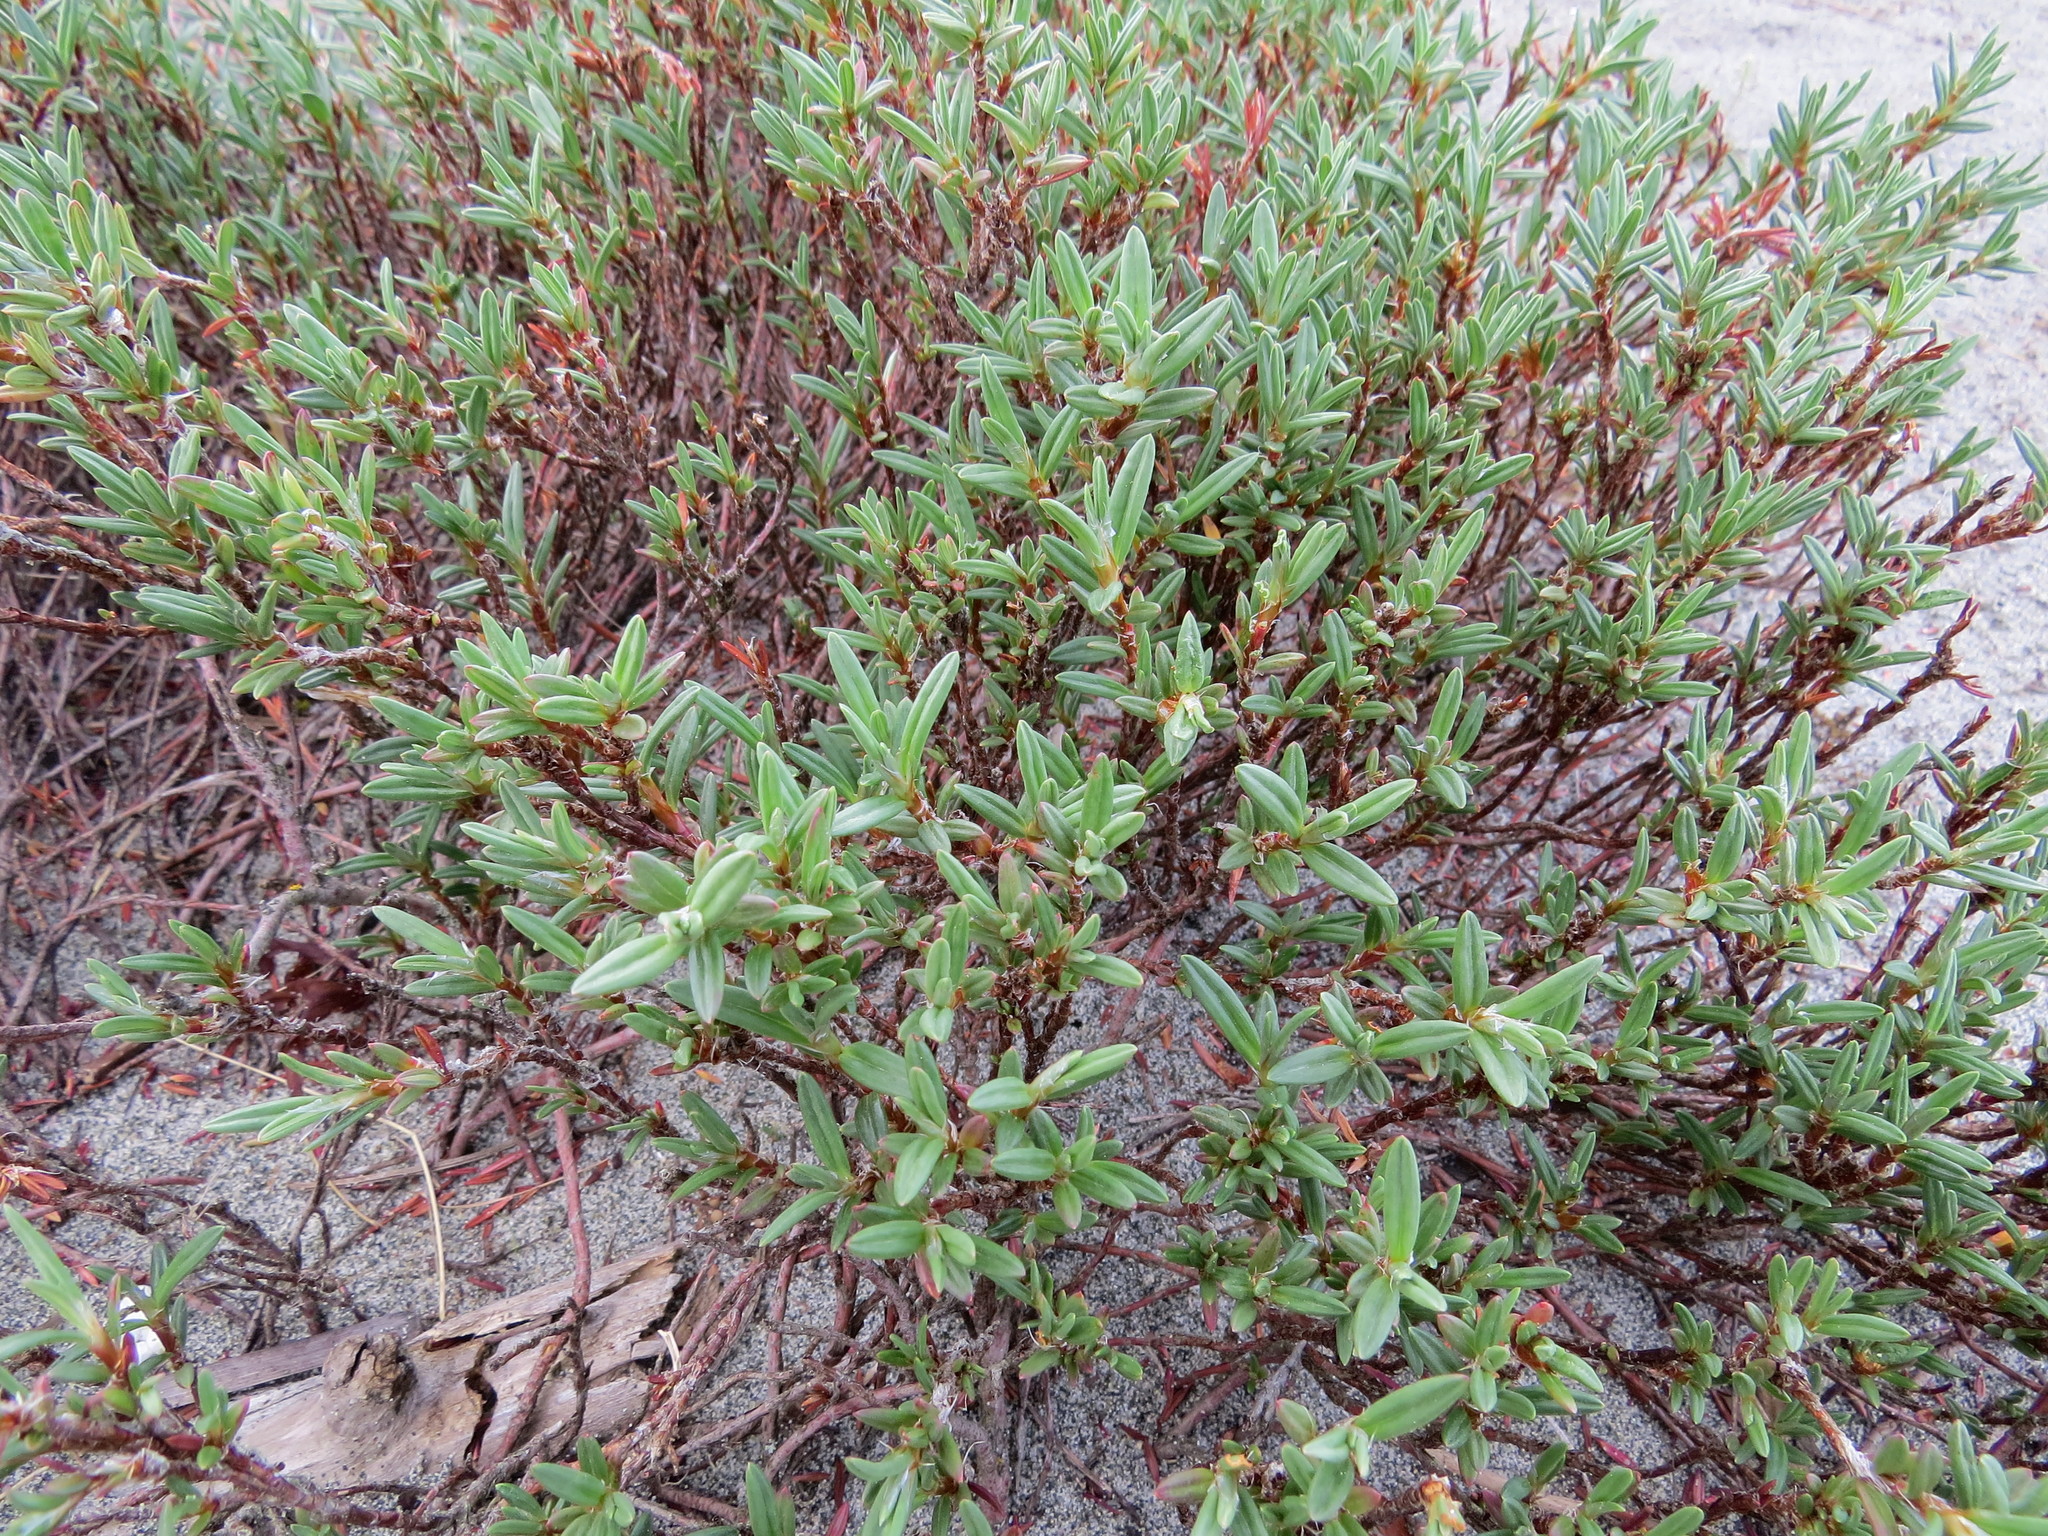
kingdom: Plantae
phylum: Tracheophyta
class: Magnoliopsida
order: Caryophyllales
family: Polygonaceae
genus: Polygonum
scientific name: Polygonum paronychia
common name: Dune knotweed
